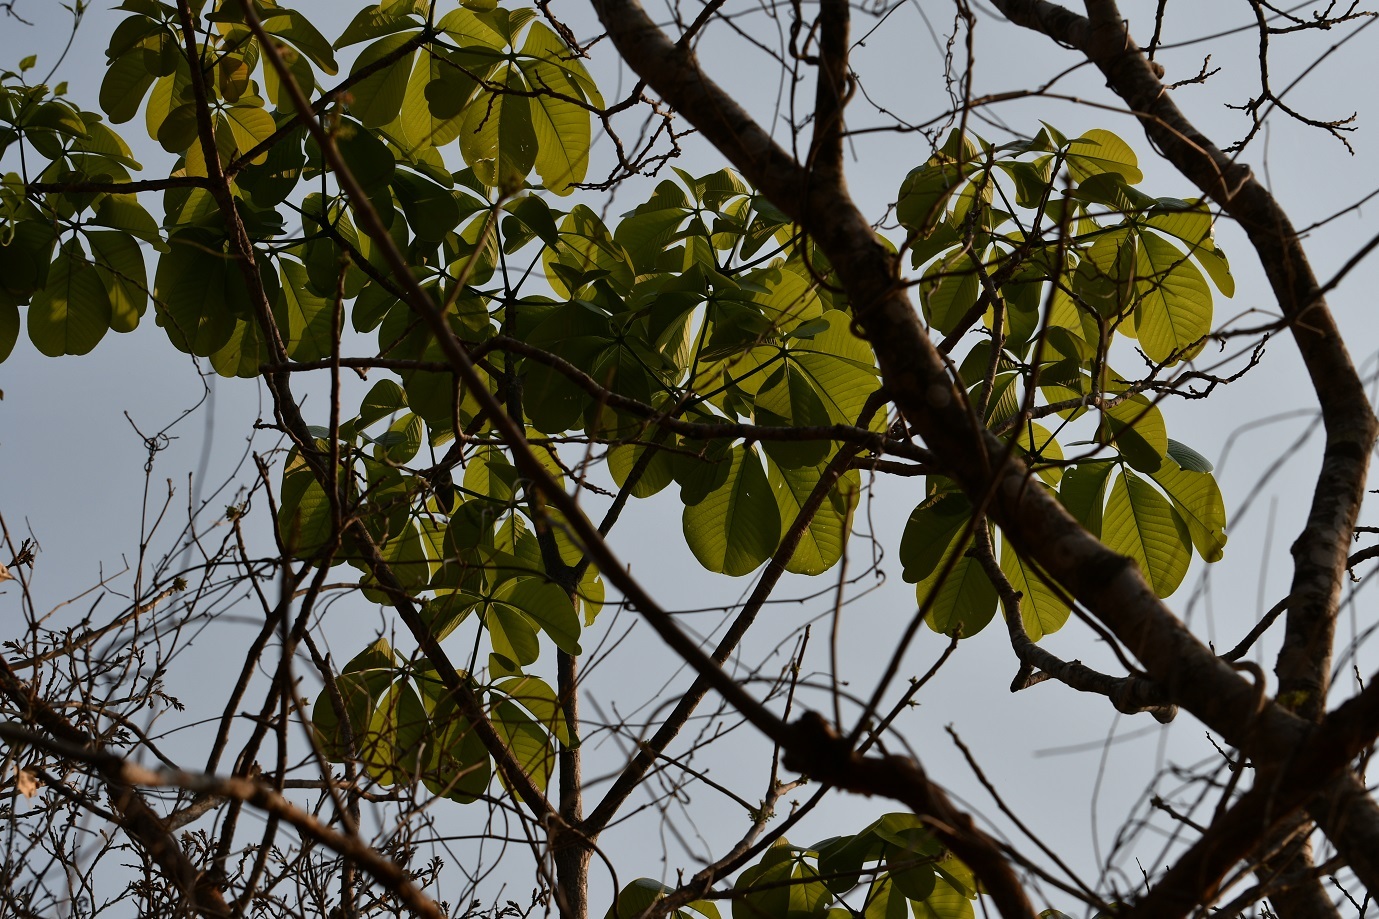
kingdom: Plantae
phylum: Tracheophyta
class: Magnoliopsida
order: Malvales
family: Malvaceae
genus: Pseudobombax
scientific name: Pseudobombax ellipticum
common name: Shaving-brush-tree
